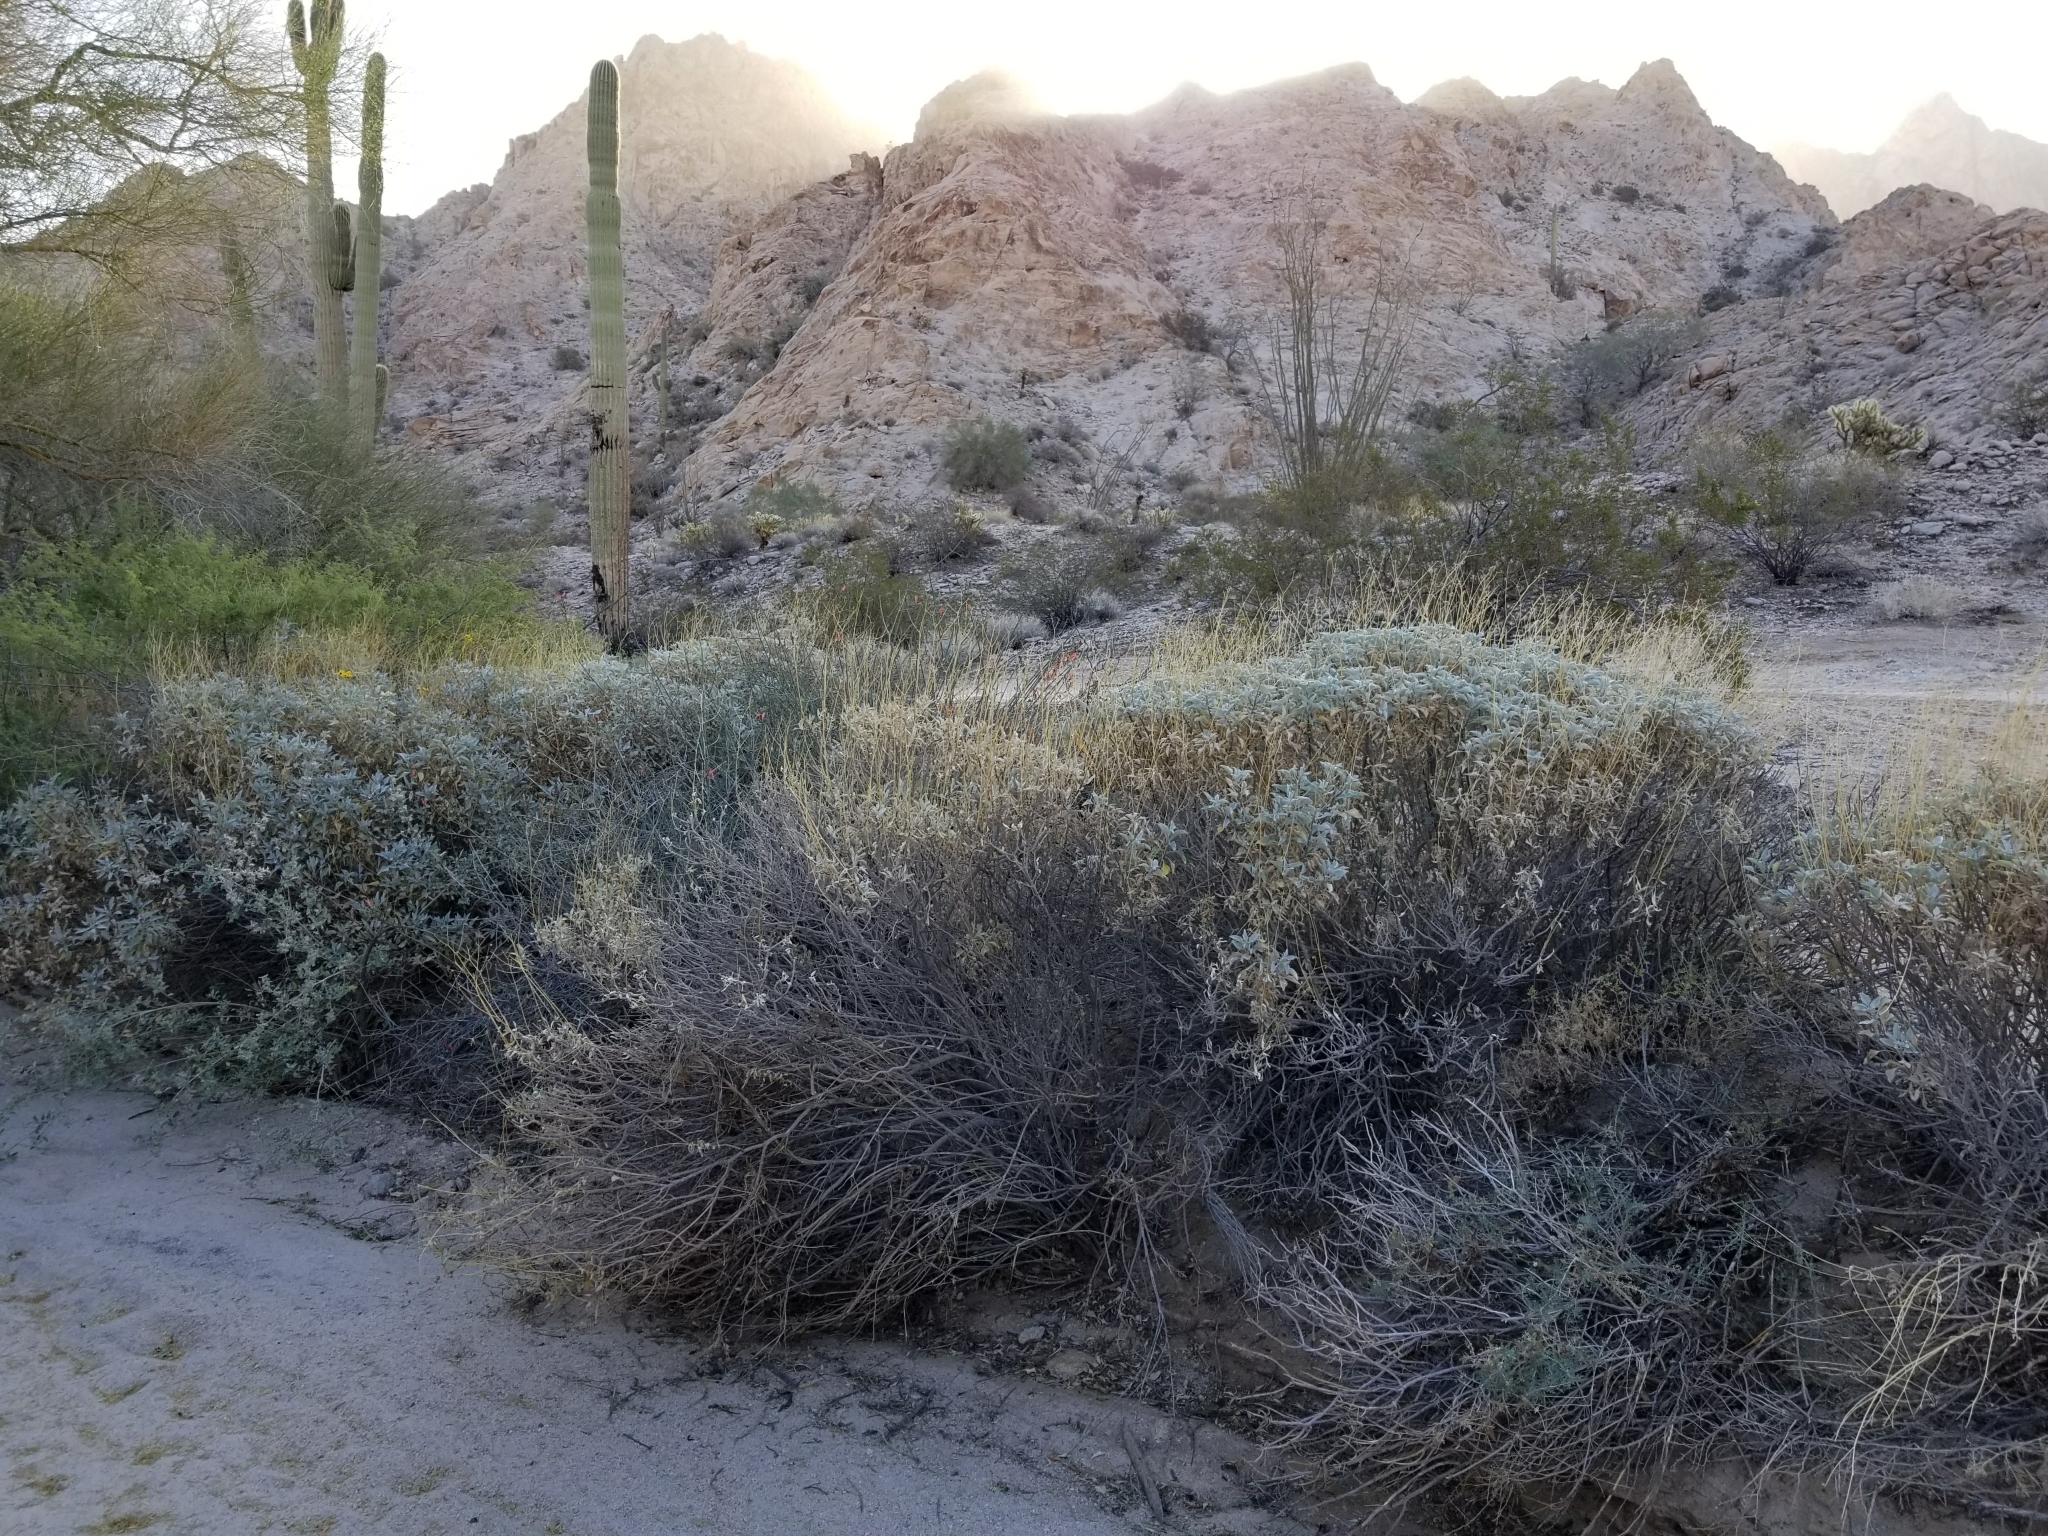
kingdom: Plantae
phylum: Tracheophyta
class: Magnoliopsida
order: Asterales
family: Asteraceae
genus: Encelia
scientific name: Encelia farinosa
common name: Brittlebush
